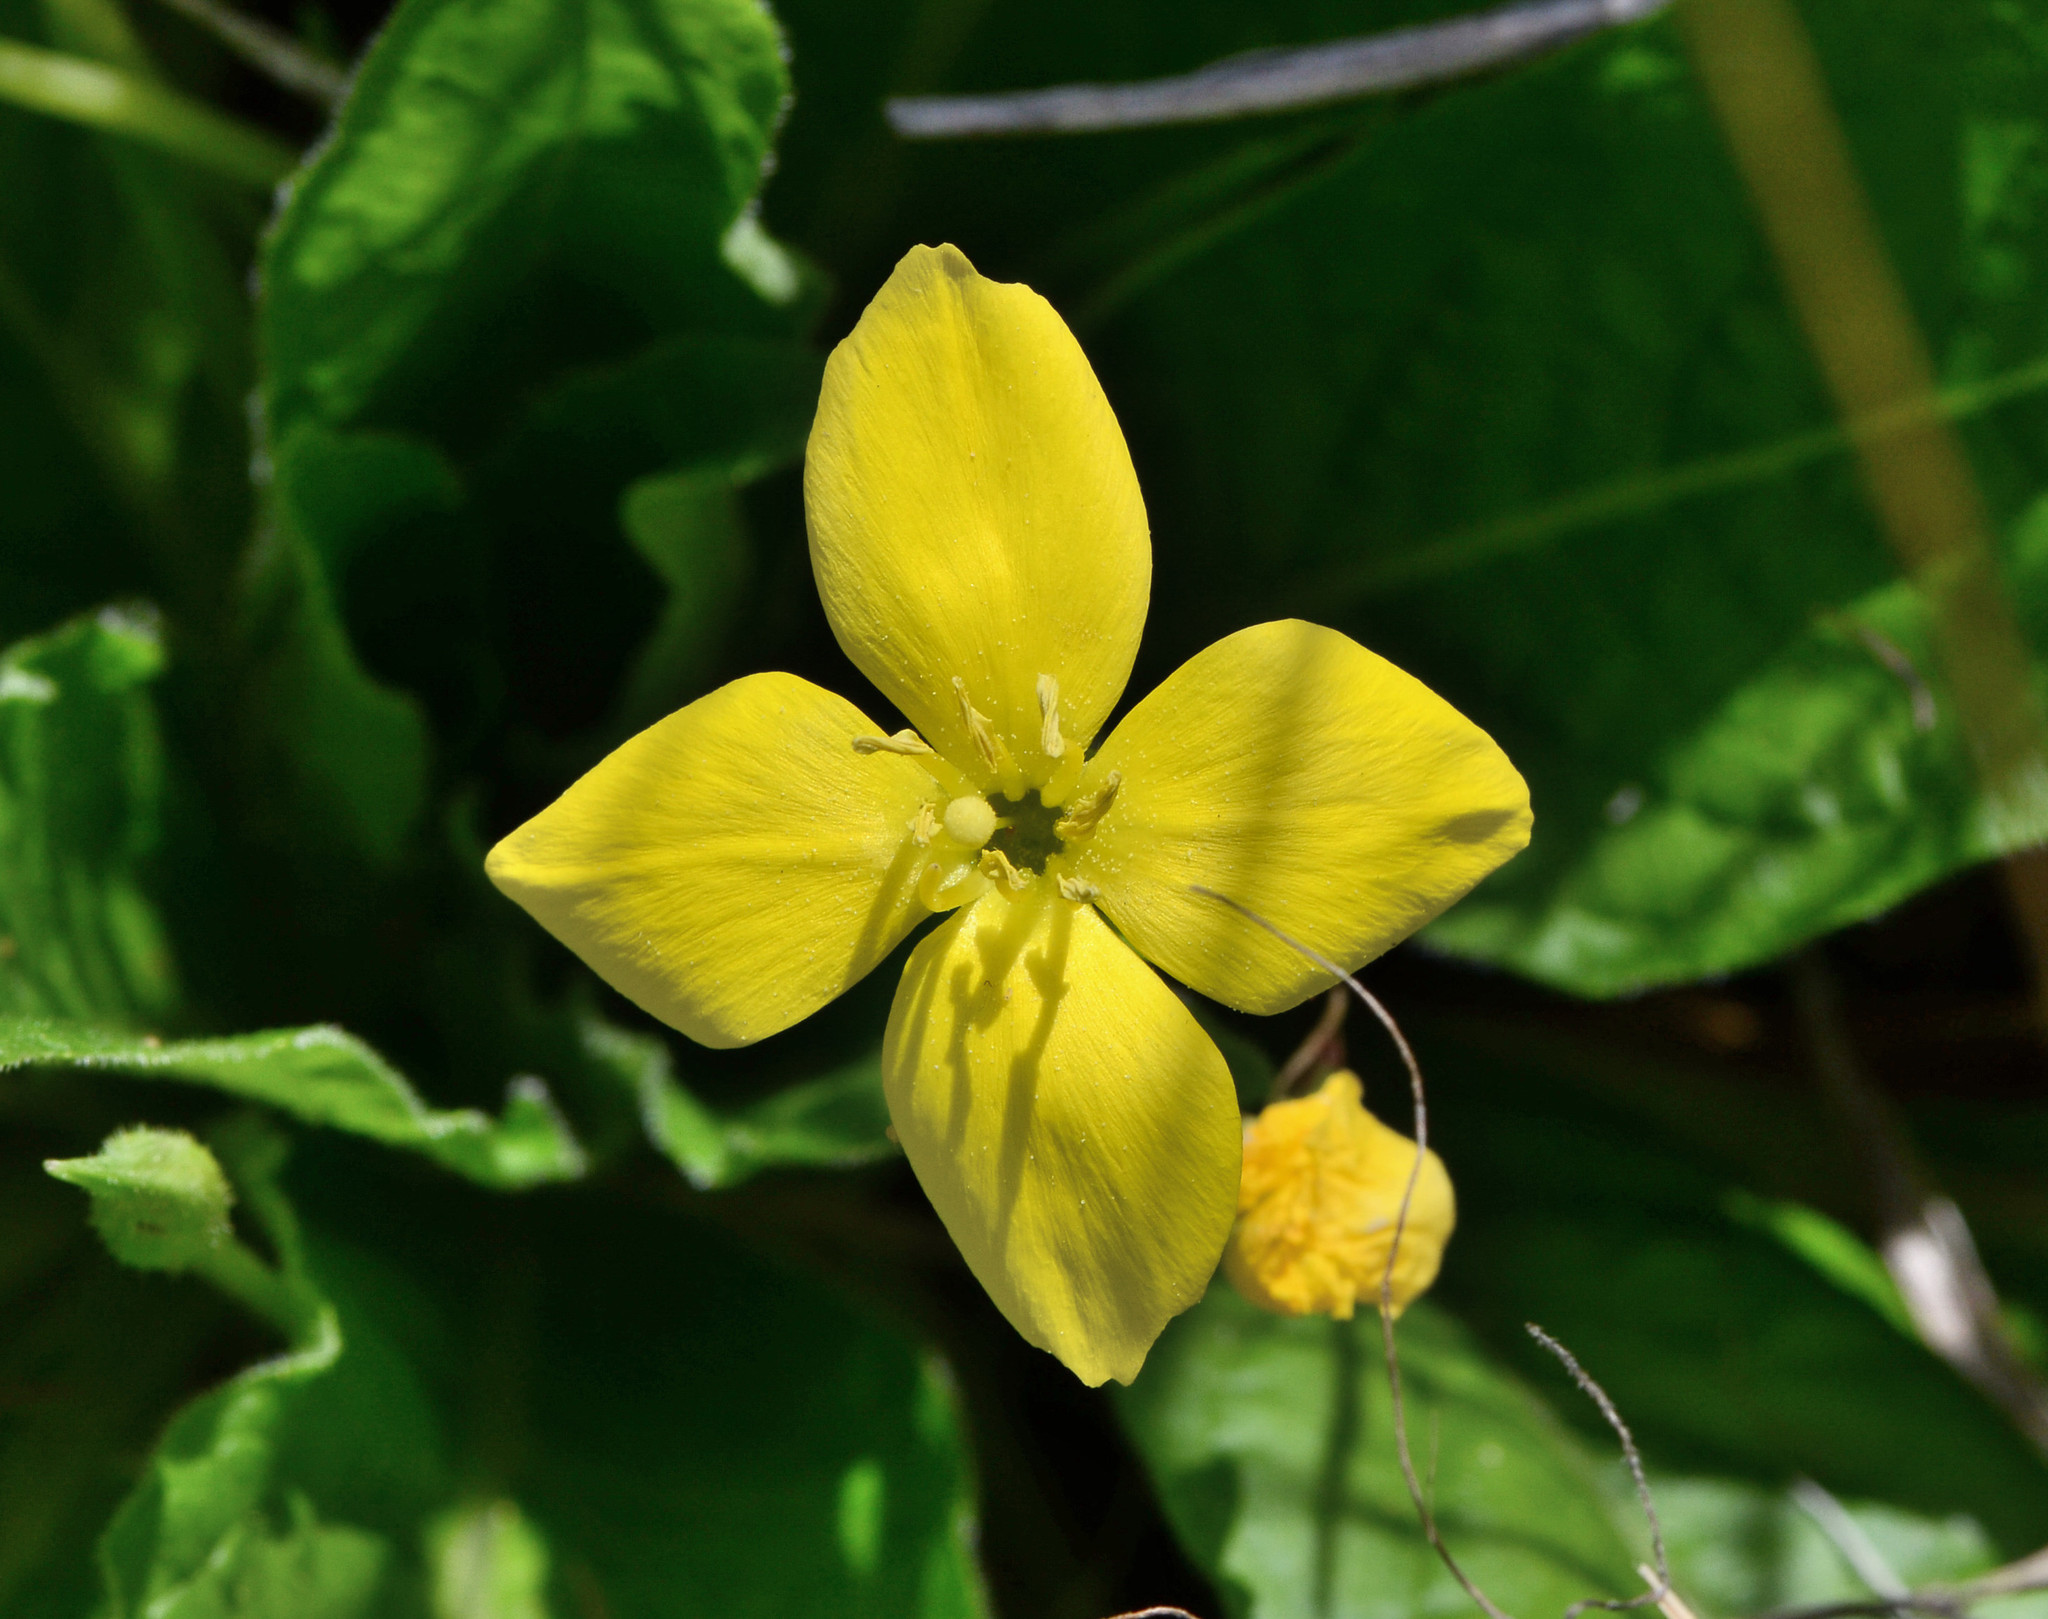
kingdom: Plantae
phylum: Tracheophyta
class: Magnoliopsida
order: Myrtales
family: Onagraceae
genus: Taraxia
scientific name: Taraxia ovata
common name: Goldeneggs
